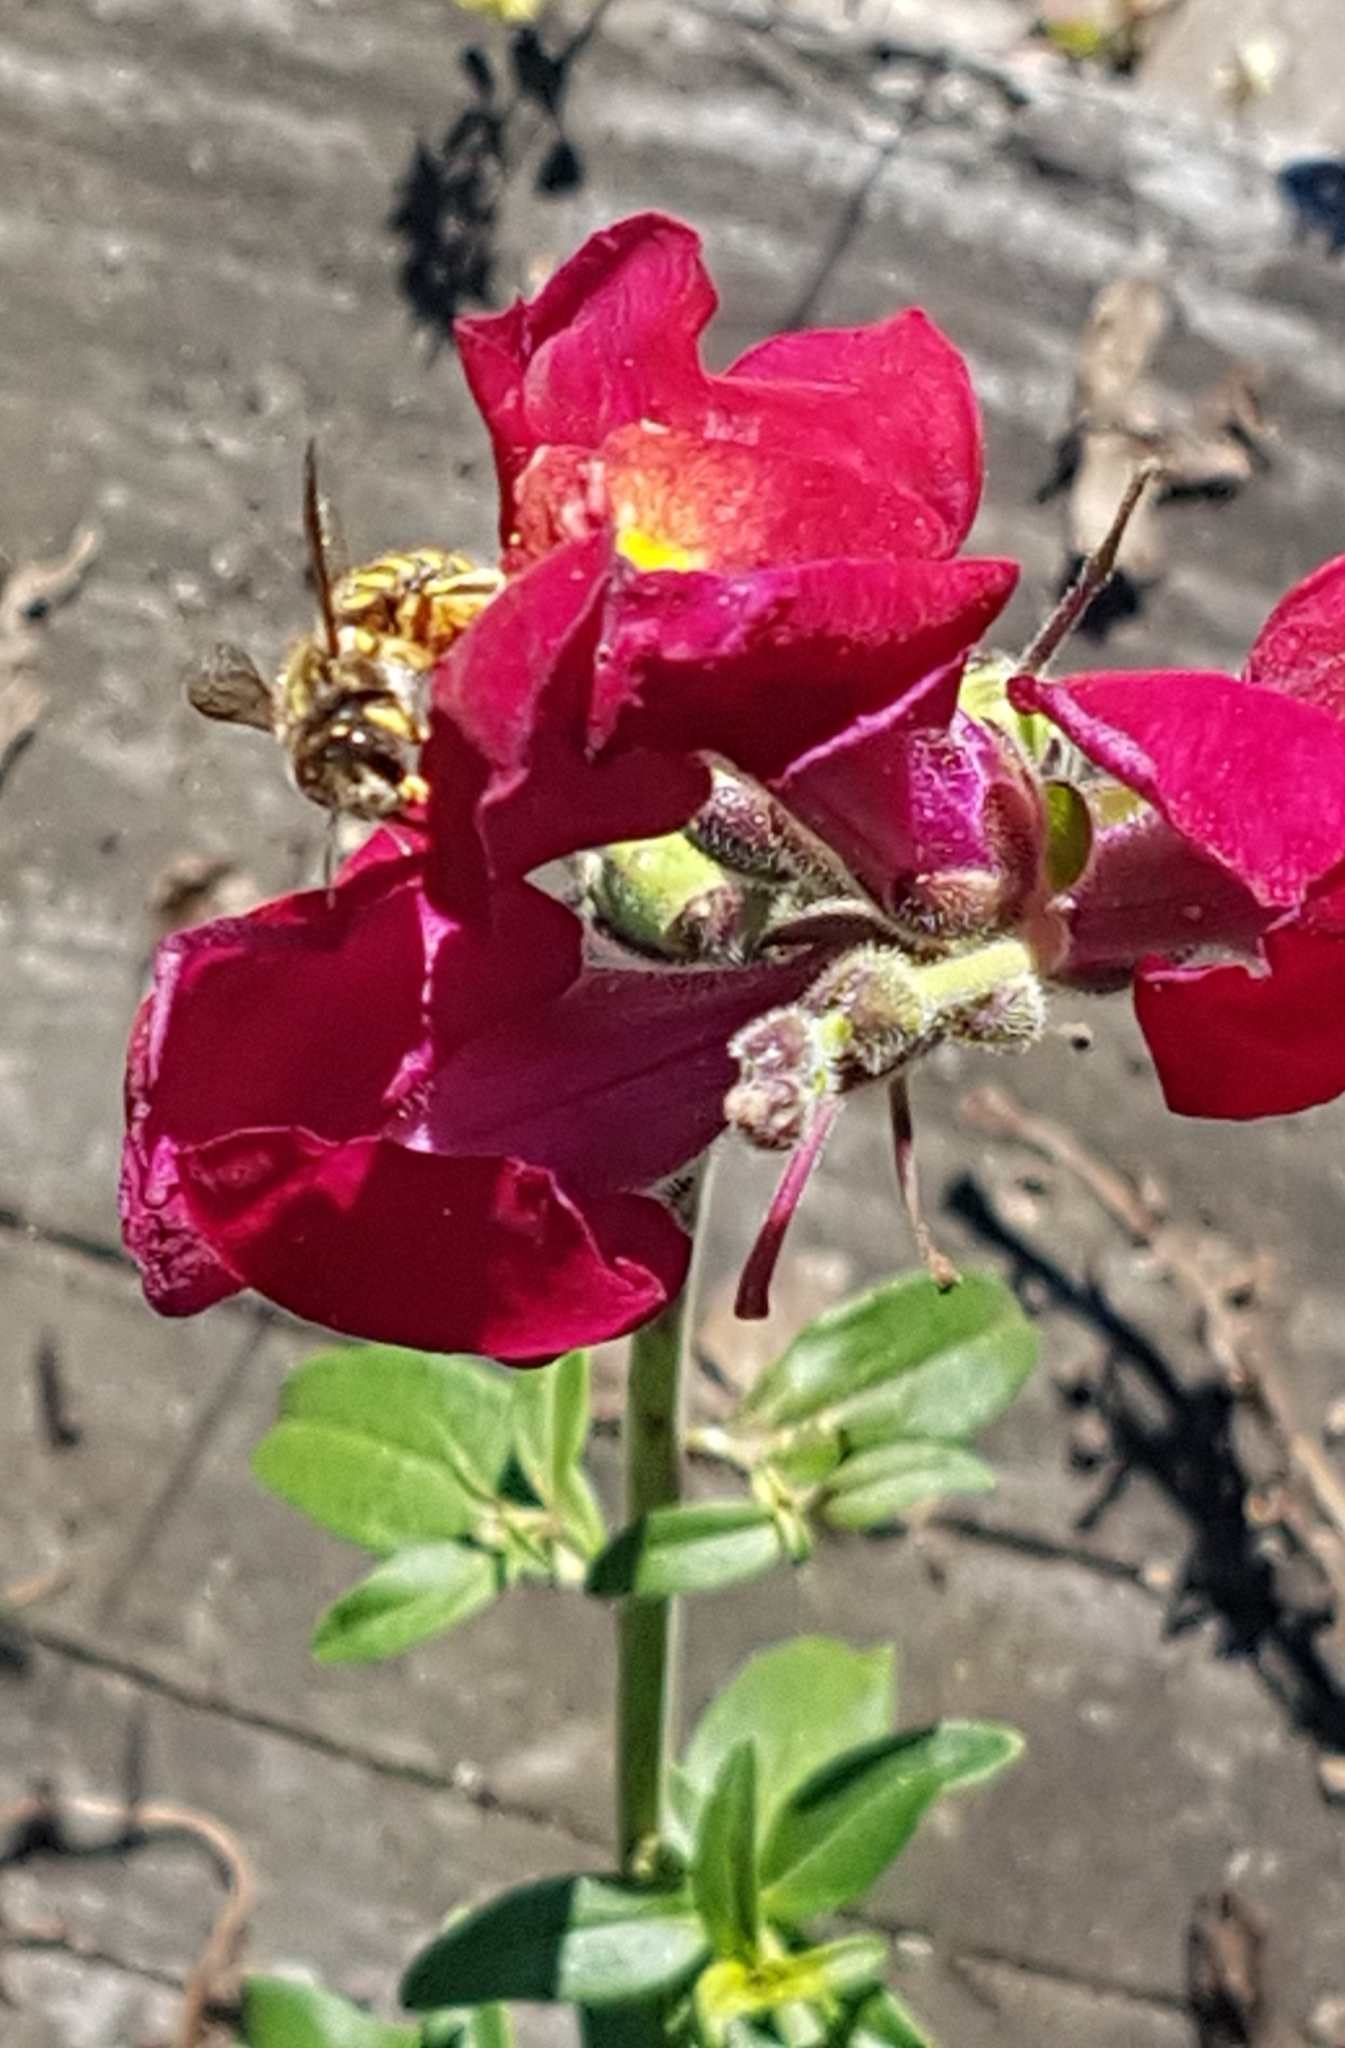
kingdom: Animalia
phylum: Arthropoda
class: Insecta
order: Hymenoptera
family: Megachilidae
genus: Anthidium
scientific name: Anthidium manicatum
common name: Wool carder bee
